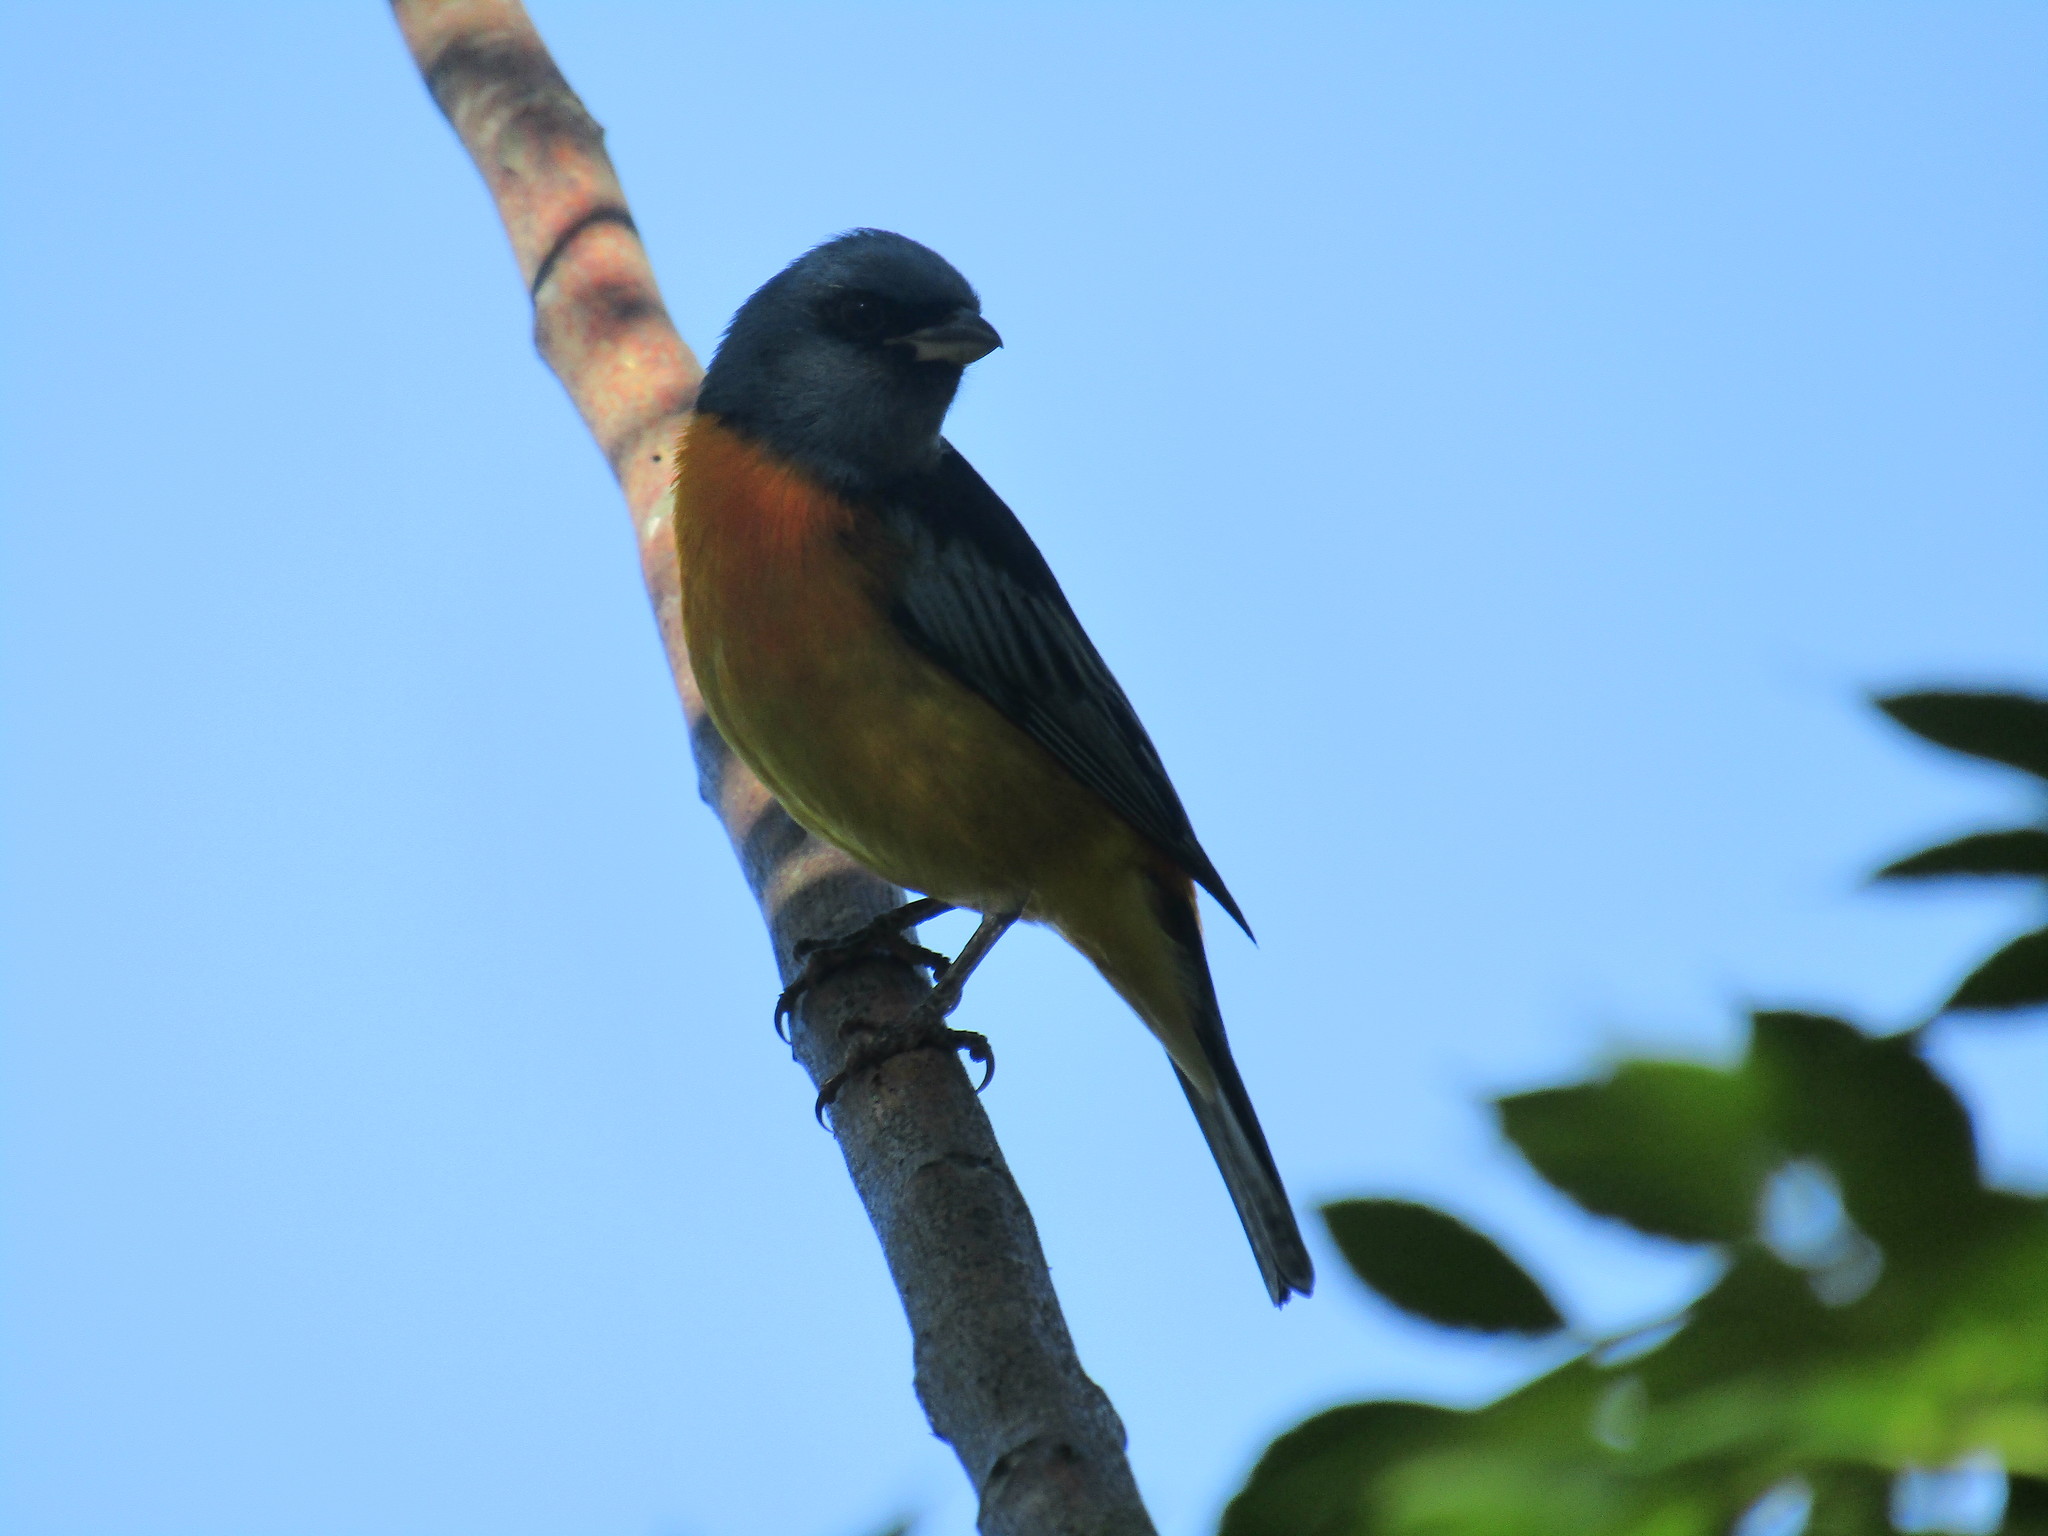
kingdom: Animalia
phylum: Chordata
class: Aves
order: Passeriformes
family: Thraupidae
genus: Rauenia
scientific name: Rauenia bonariensis
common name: Blue-and-yellow tanager
